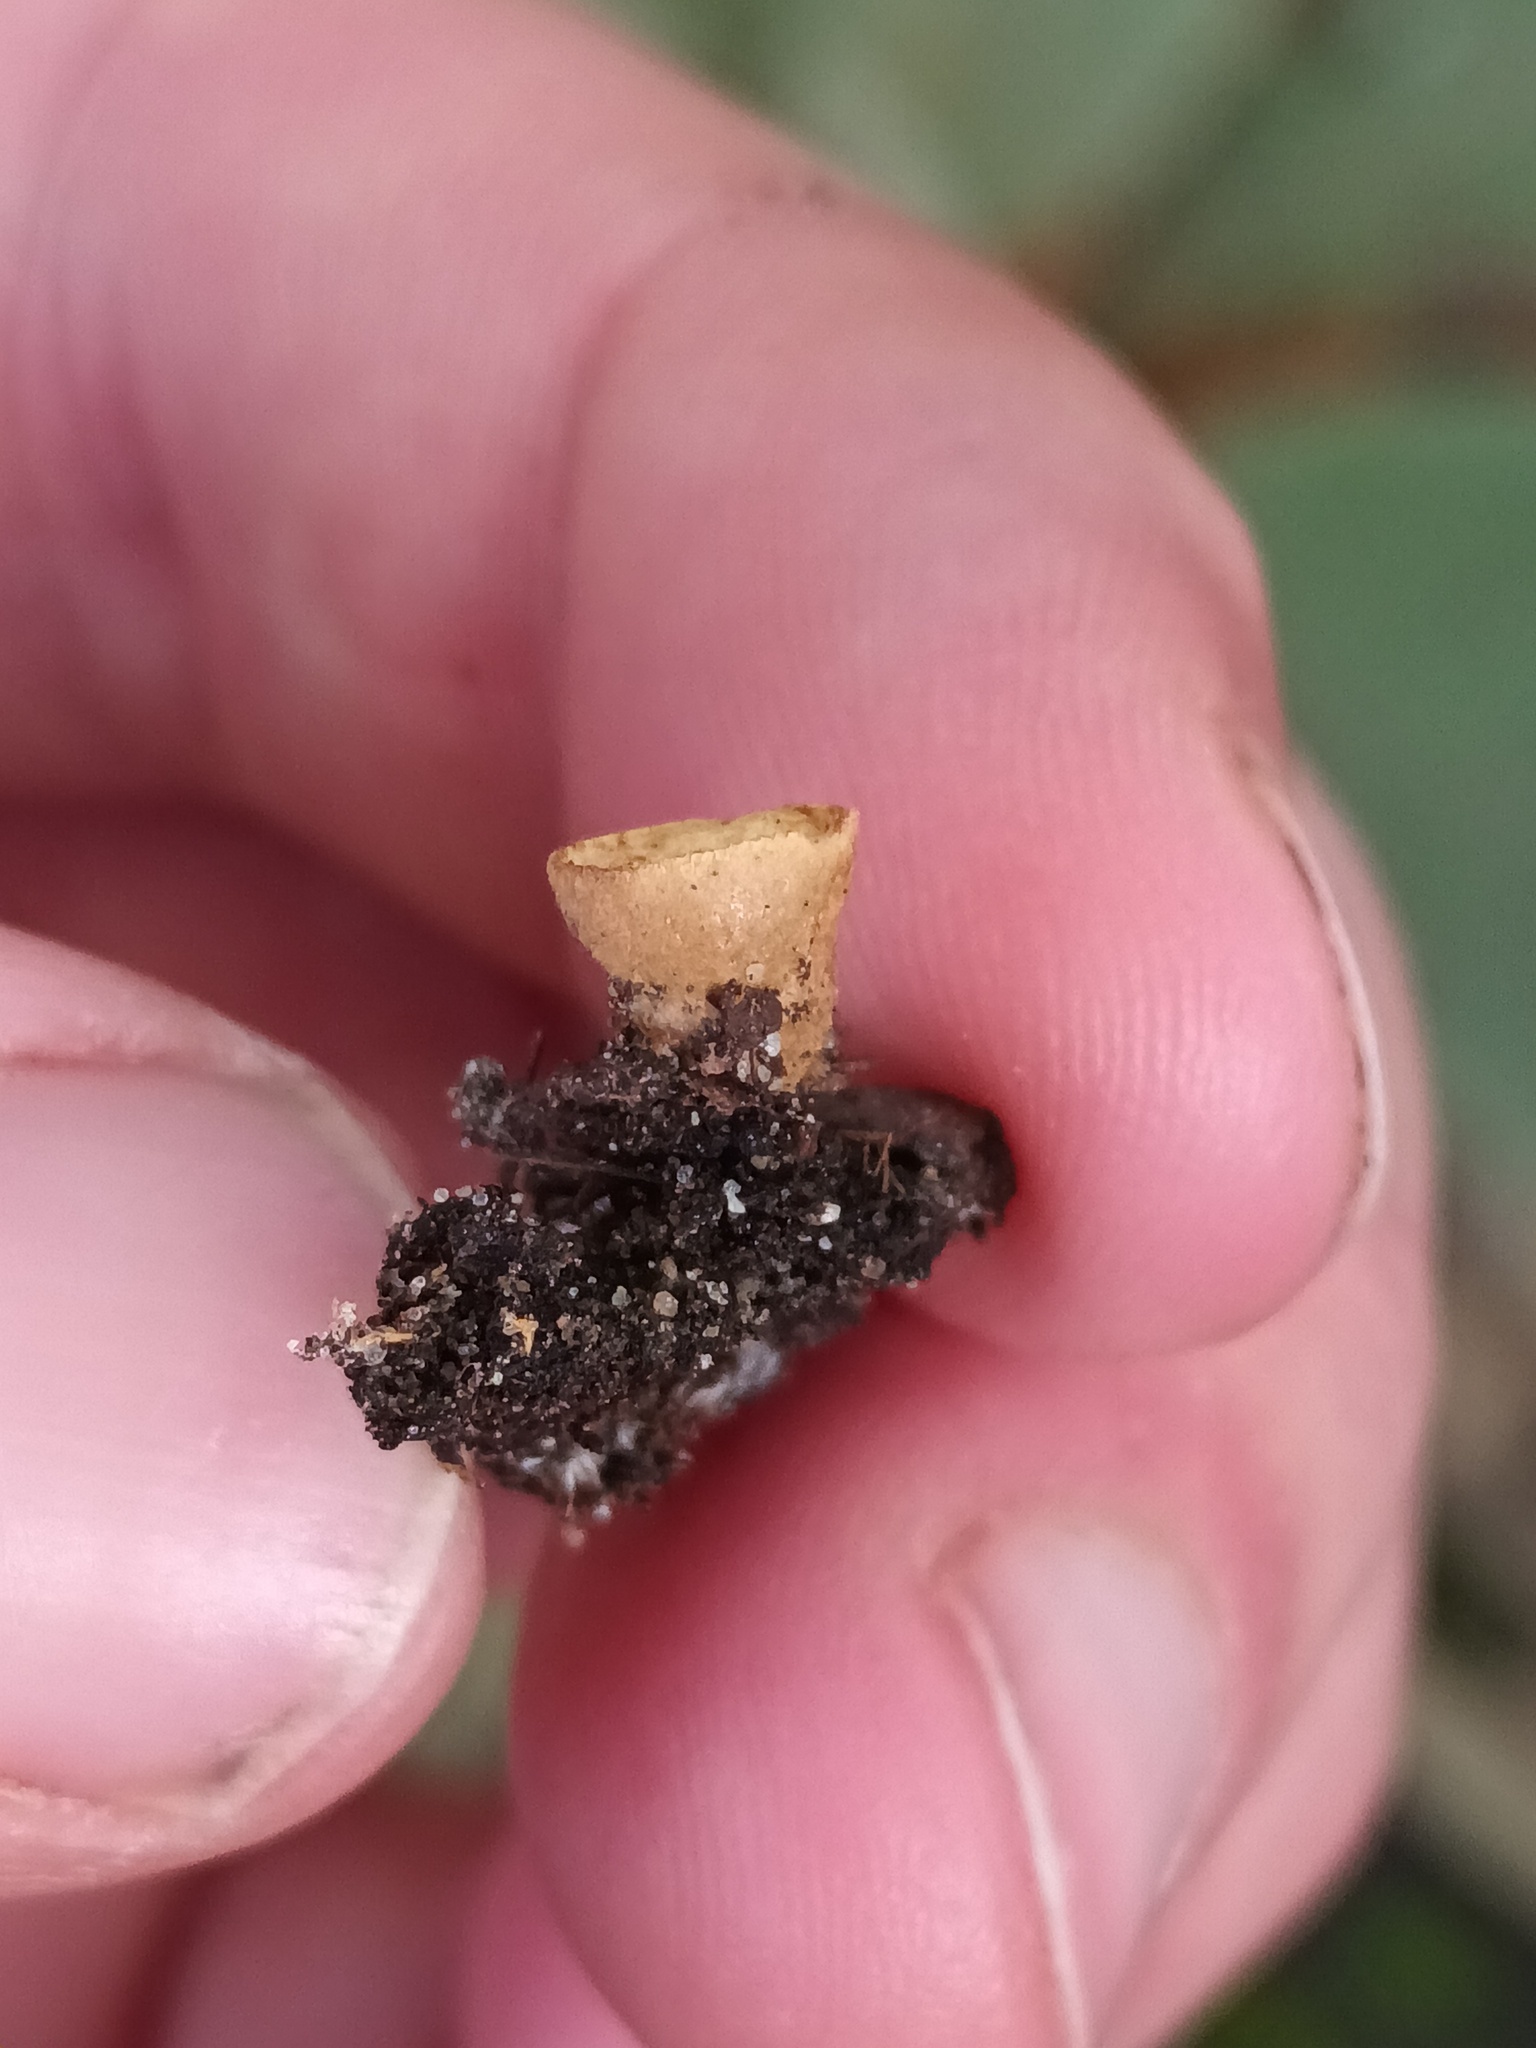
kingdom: Fungi
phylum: Basidiomycota
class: Agaricomycetes
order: Agaricales
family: Nidulariaceae
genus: Crucibulum
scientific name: Crucibulum laeve
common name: Common bird's nest
